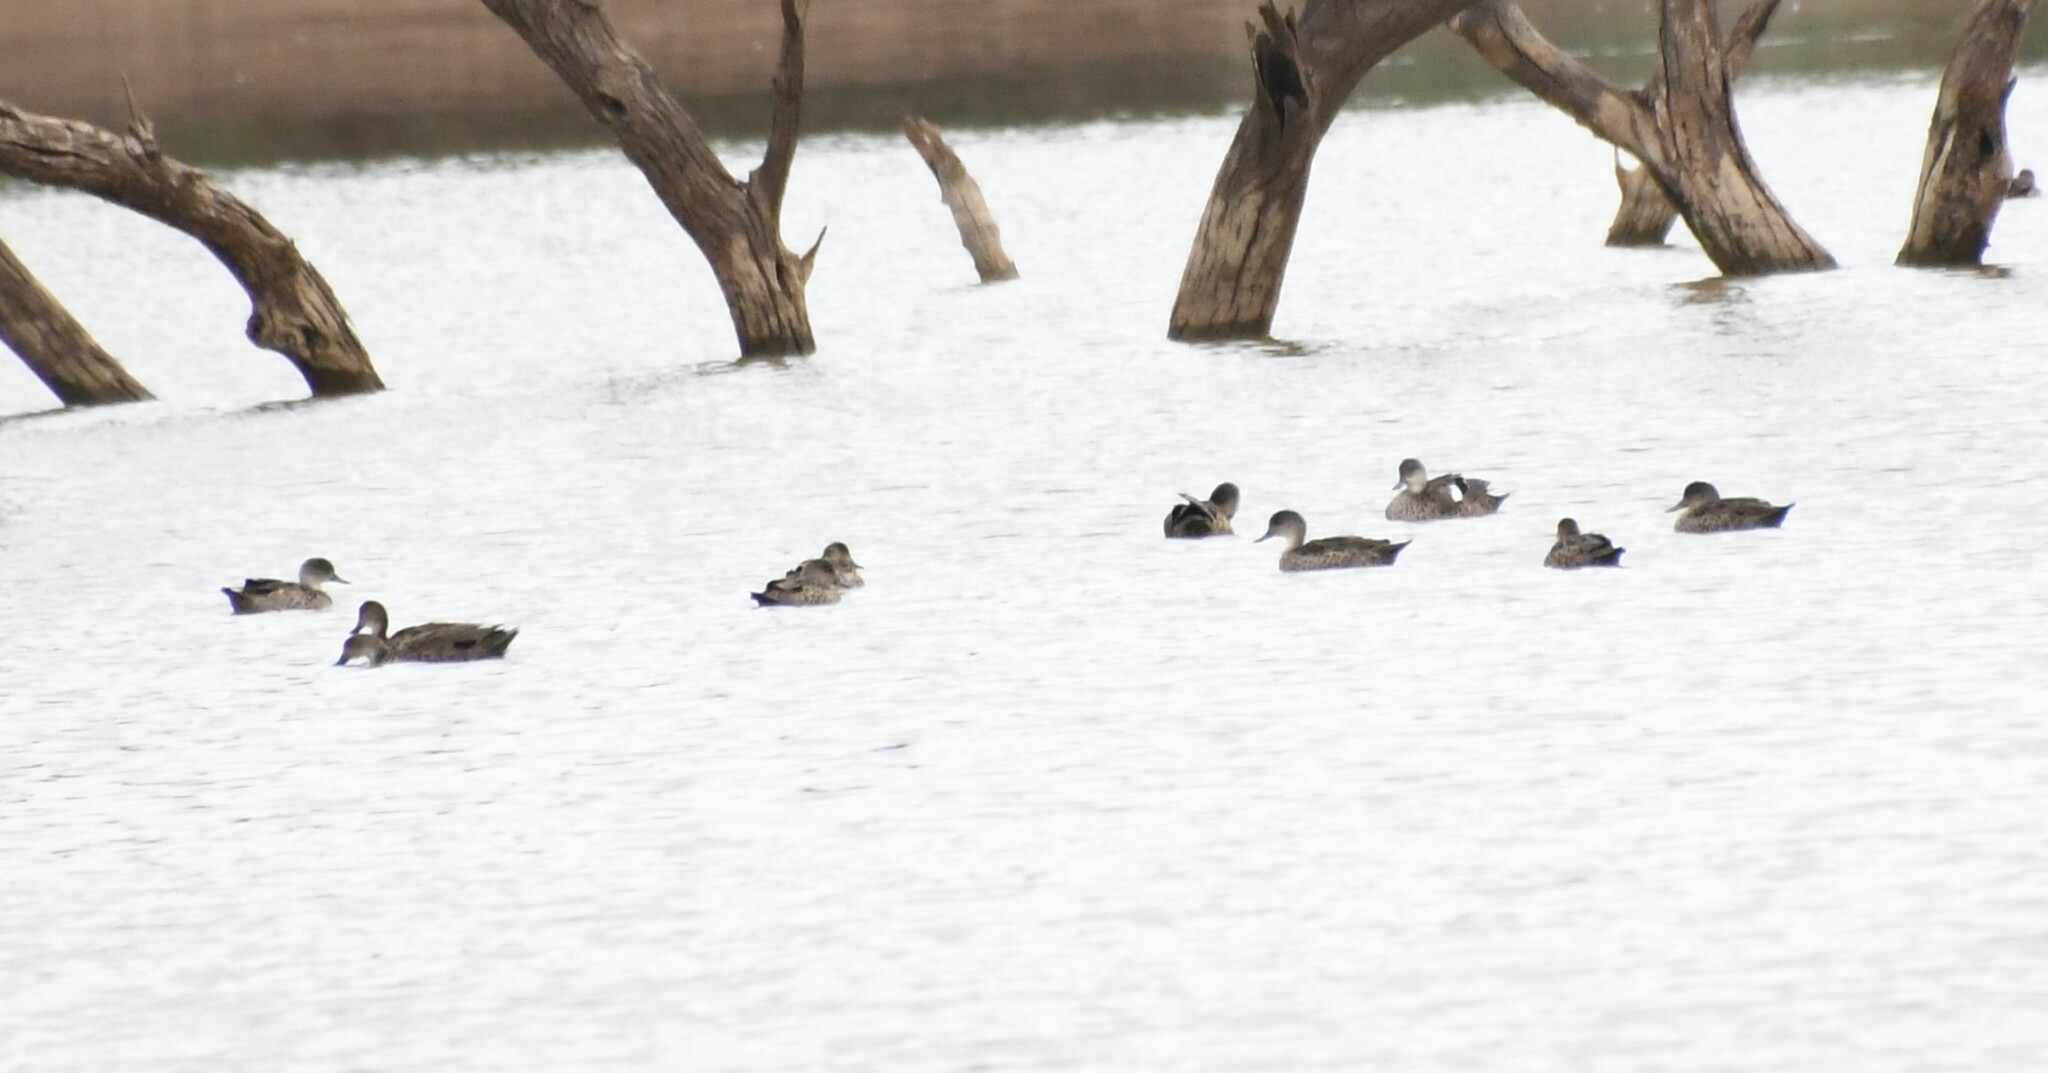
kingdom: Animalia
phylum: Chordata
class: Aves
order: Anseriformes
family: Anatidae
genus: Anas
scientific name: Anas gracilis
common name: Grey teal
